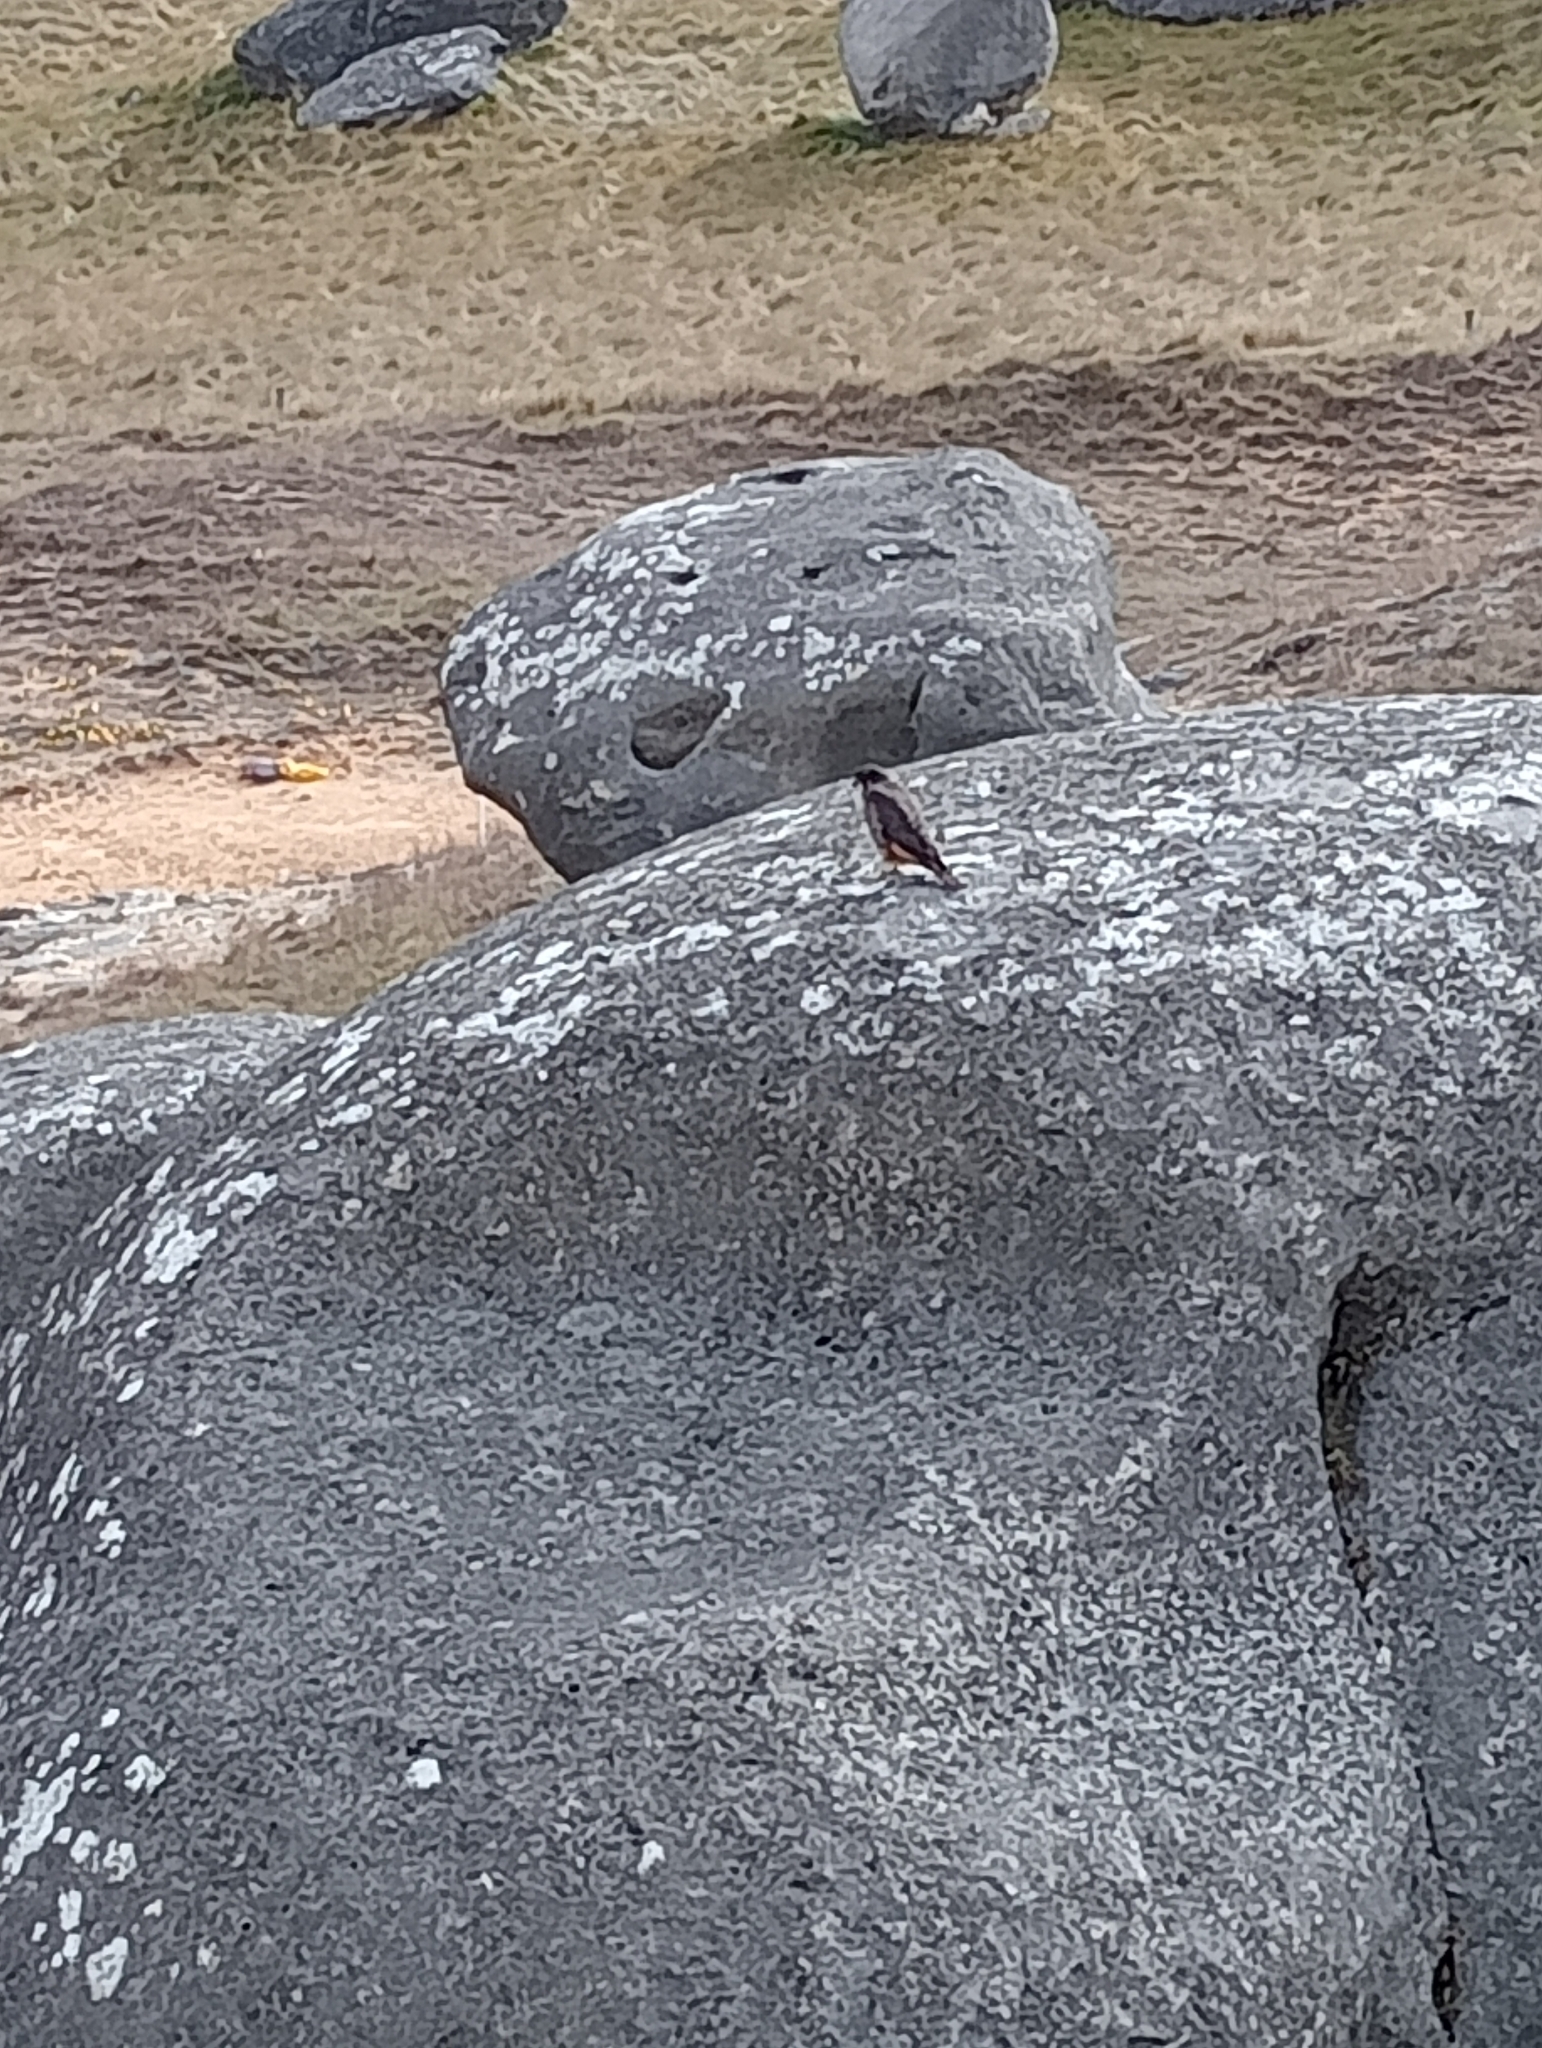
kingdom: Animalia
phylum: Chordata
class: Aves
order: Falconiformes
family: Falconidae
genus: Falco
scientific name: Falco novaeseelandiae
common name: New zealand falcon
